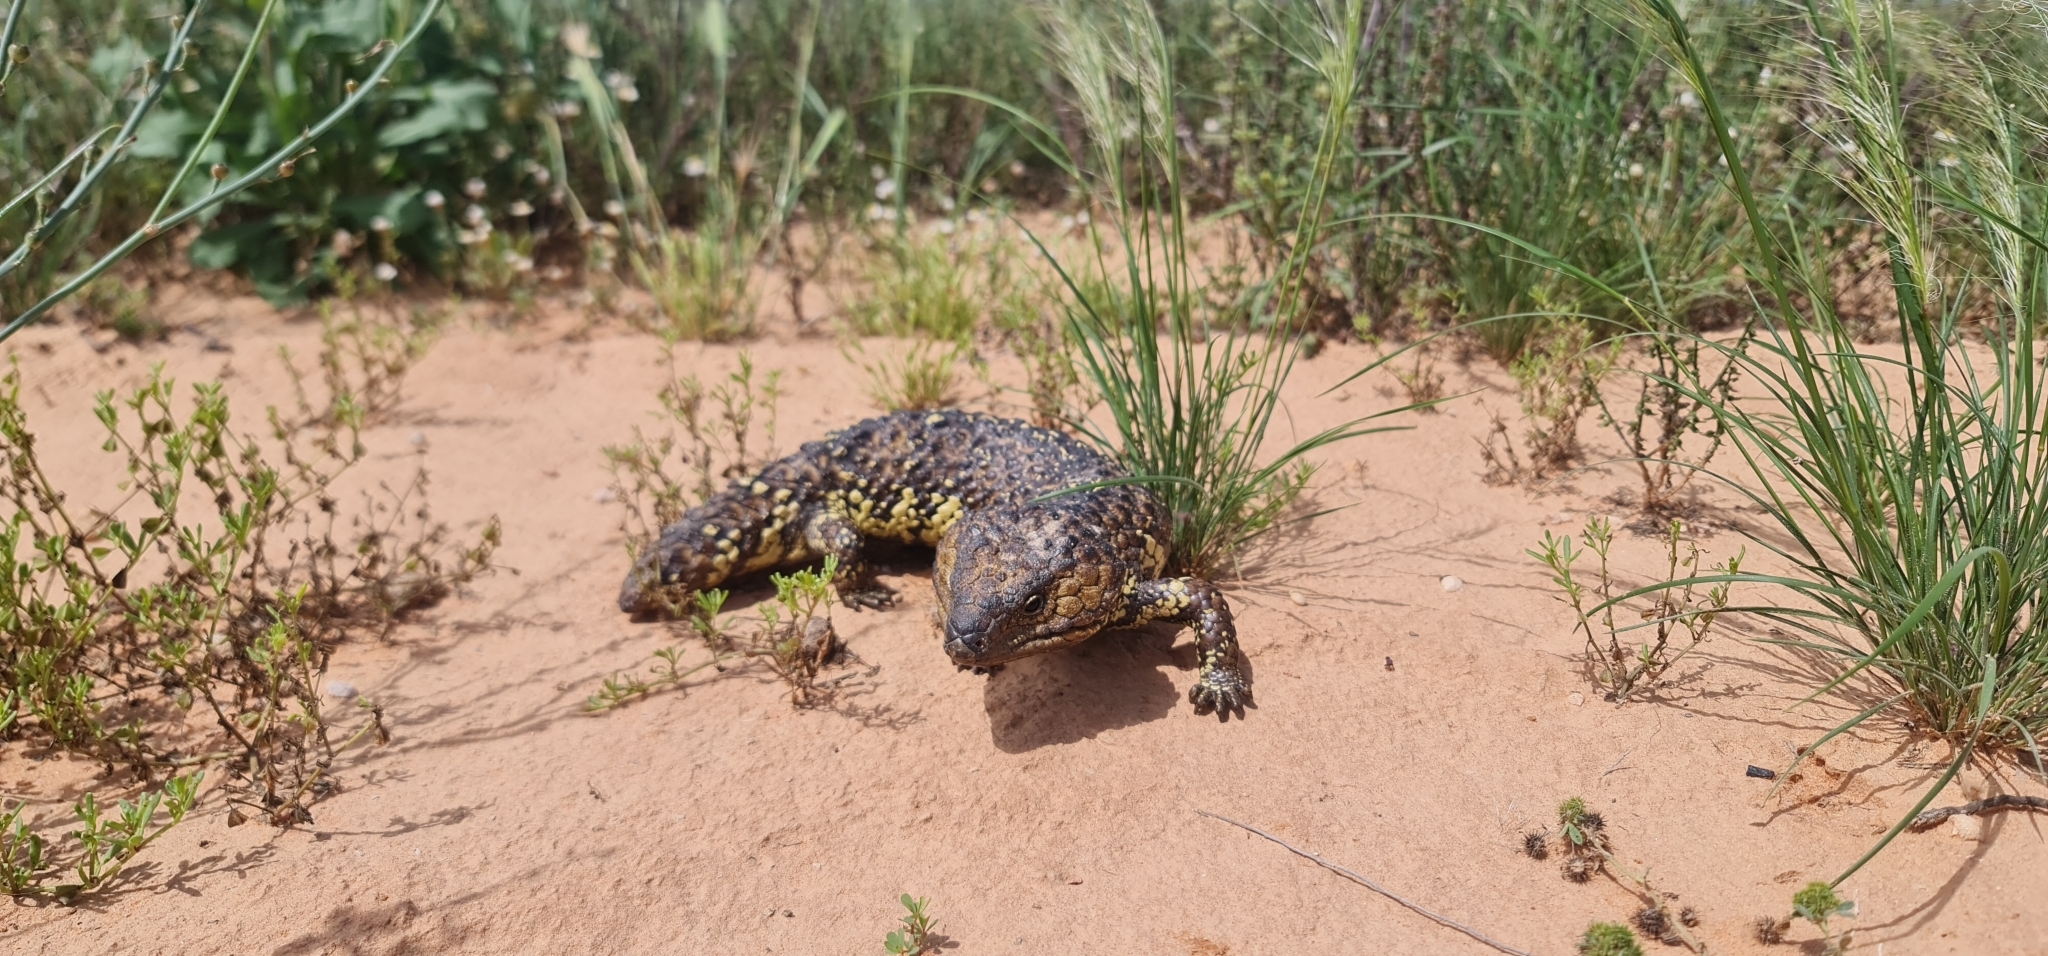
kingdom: Animalia
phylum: Chordata
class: Squamata
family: Scincidae
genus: Tiliqua
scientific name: Tiliqua rugosa
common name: Pinecone lizard
